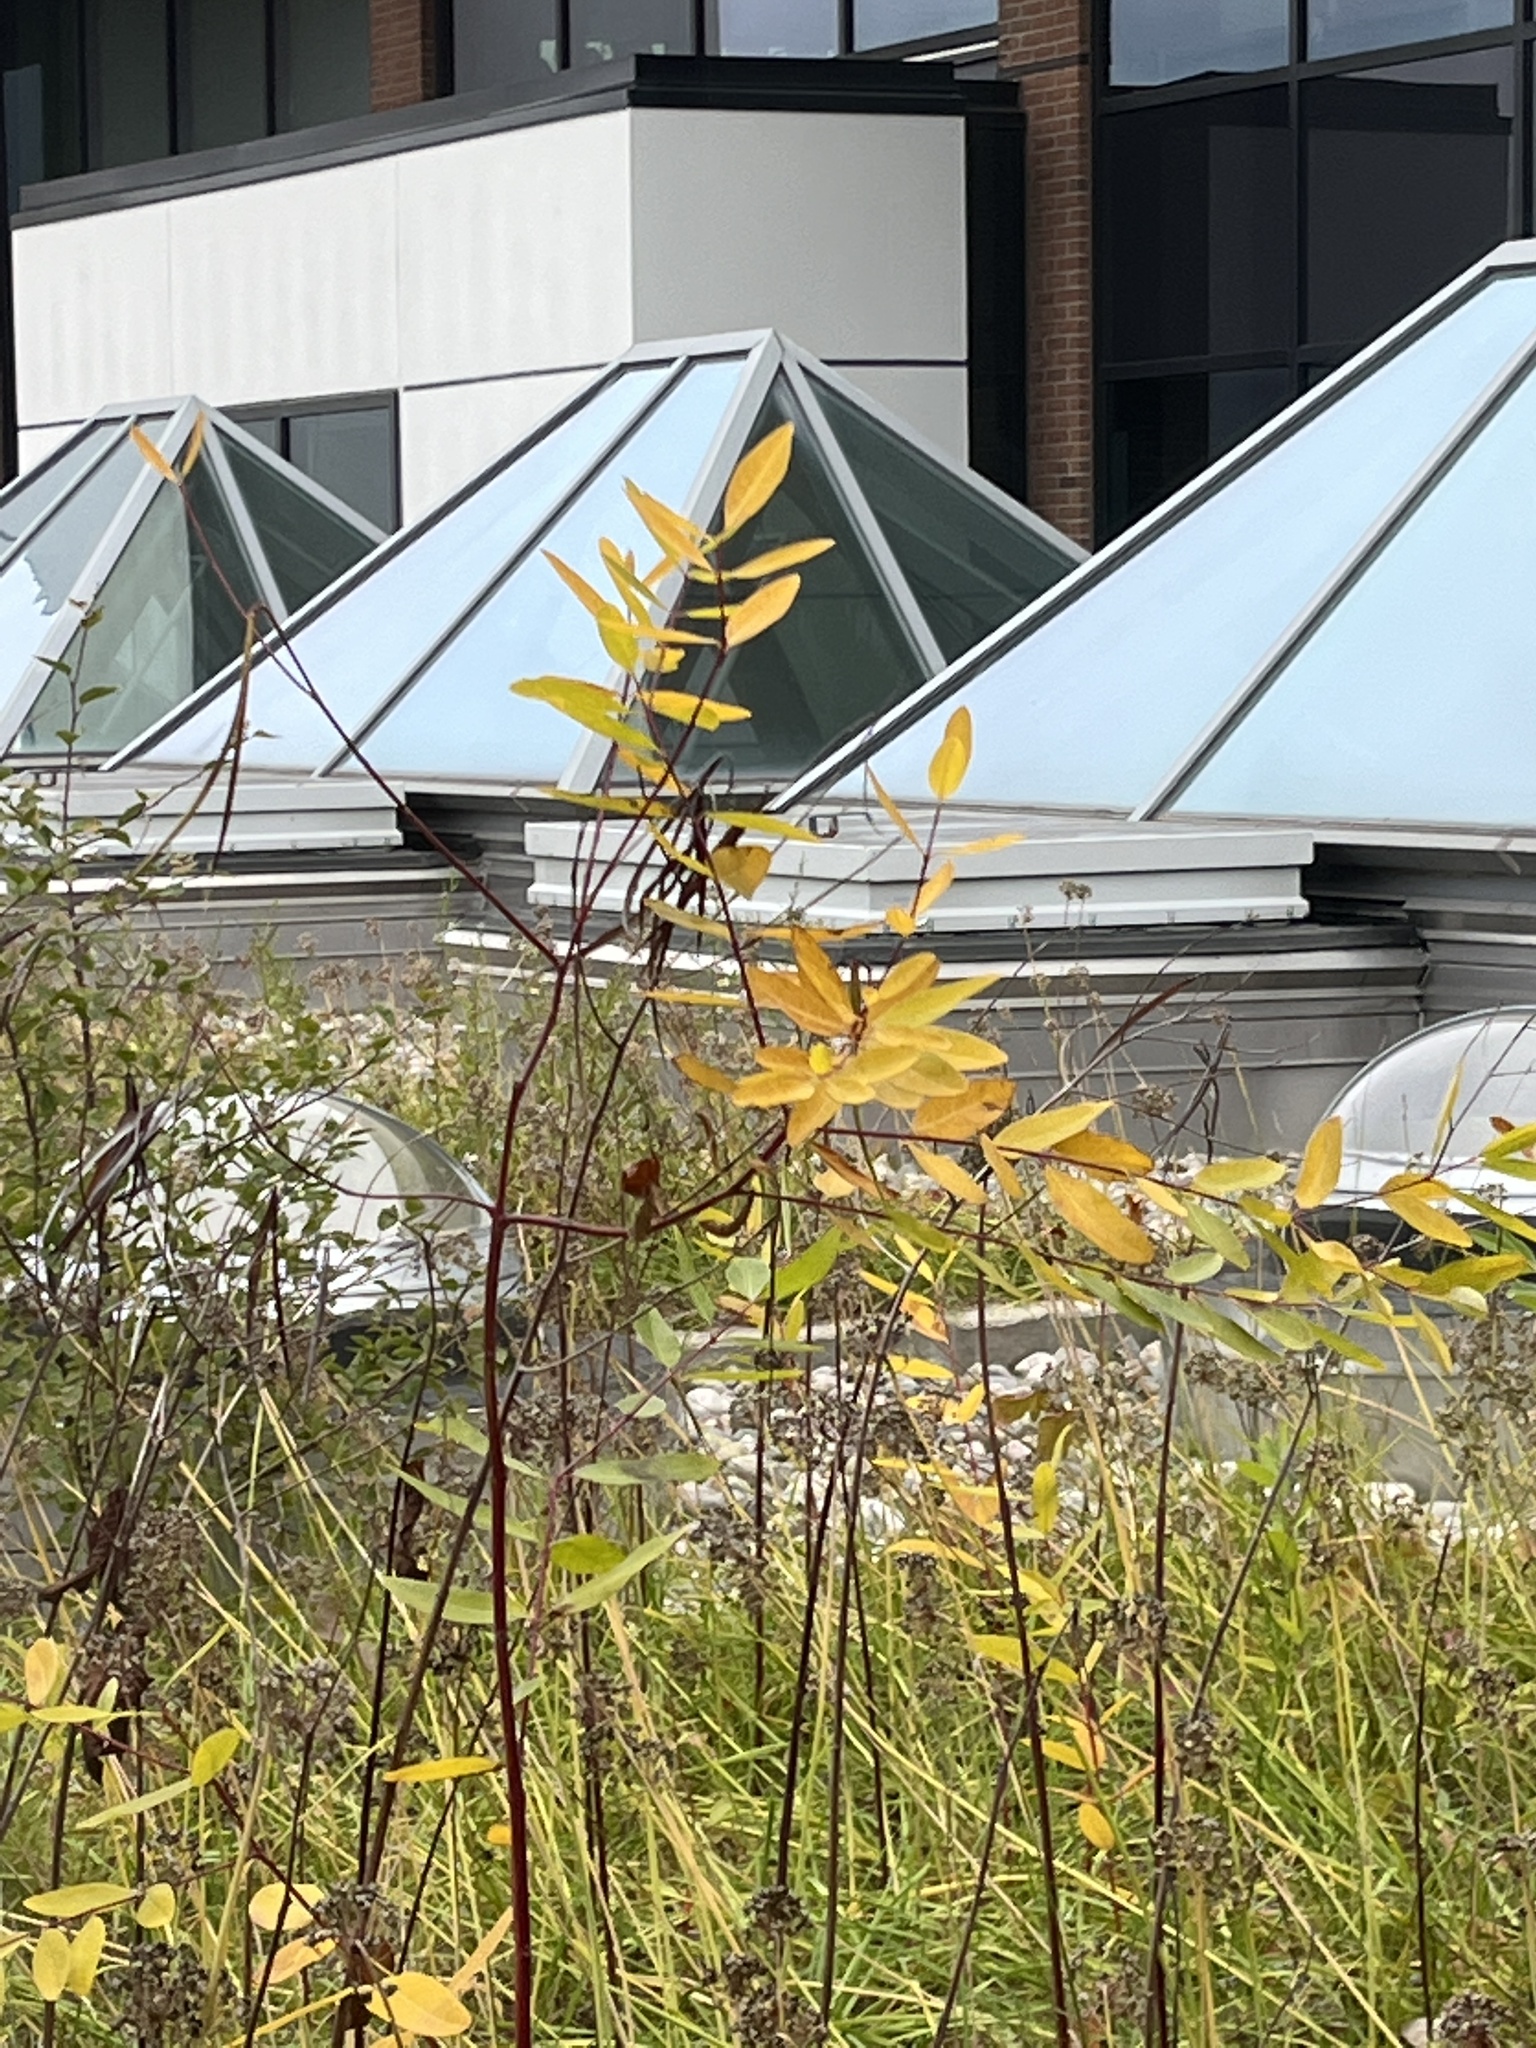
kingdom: Plantae
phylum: Tracheophyta
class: Magnoliopsida
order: Gentianales
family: Apocynaceae
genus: Apocynum
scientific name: Apocynum cannabinum
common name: Hemp dogbane
